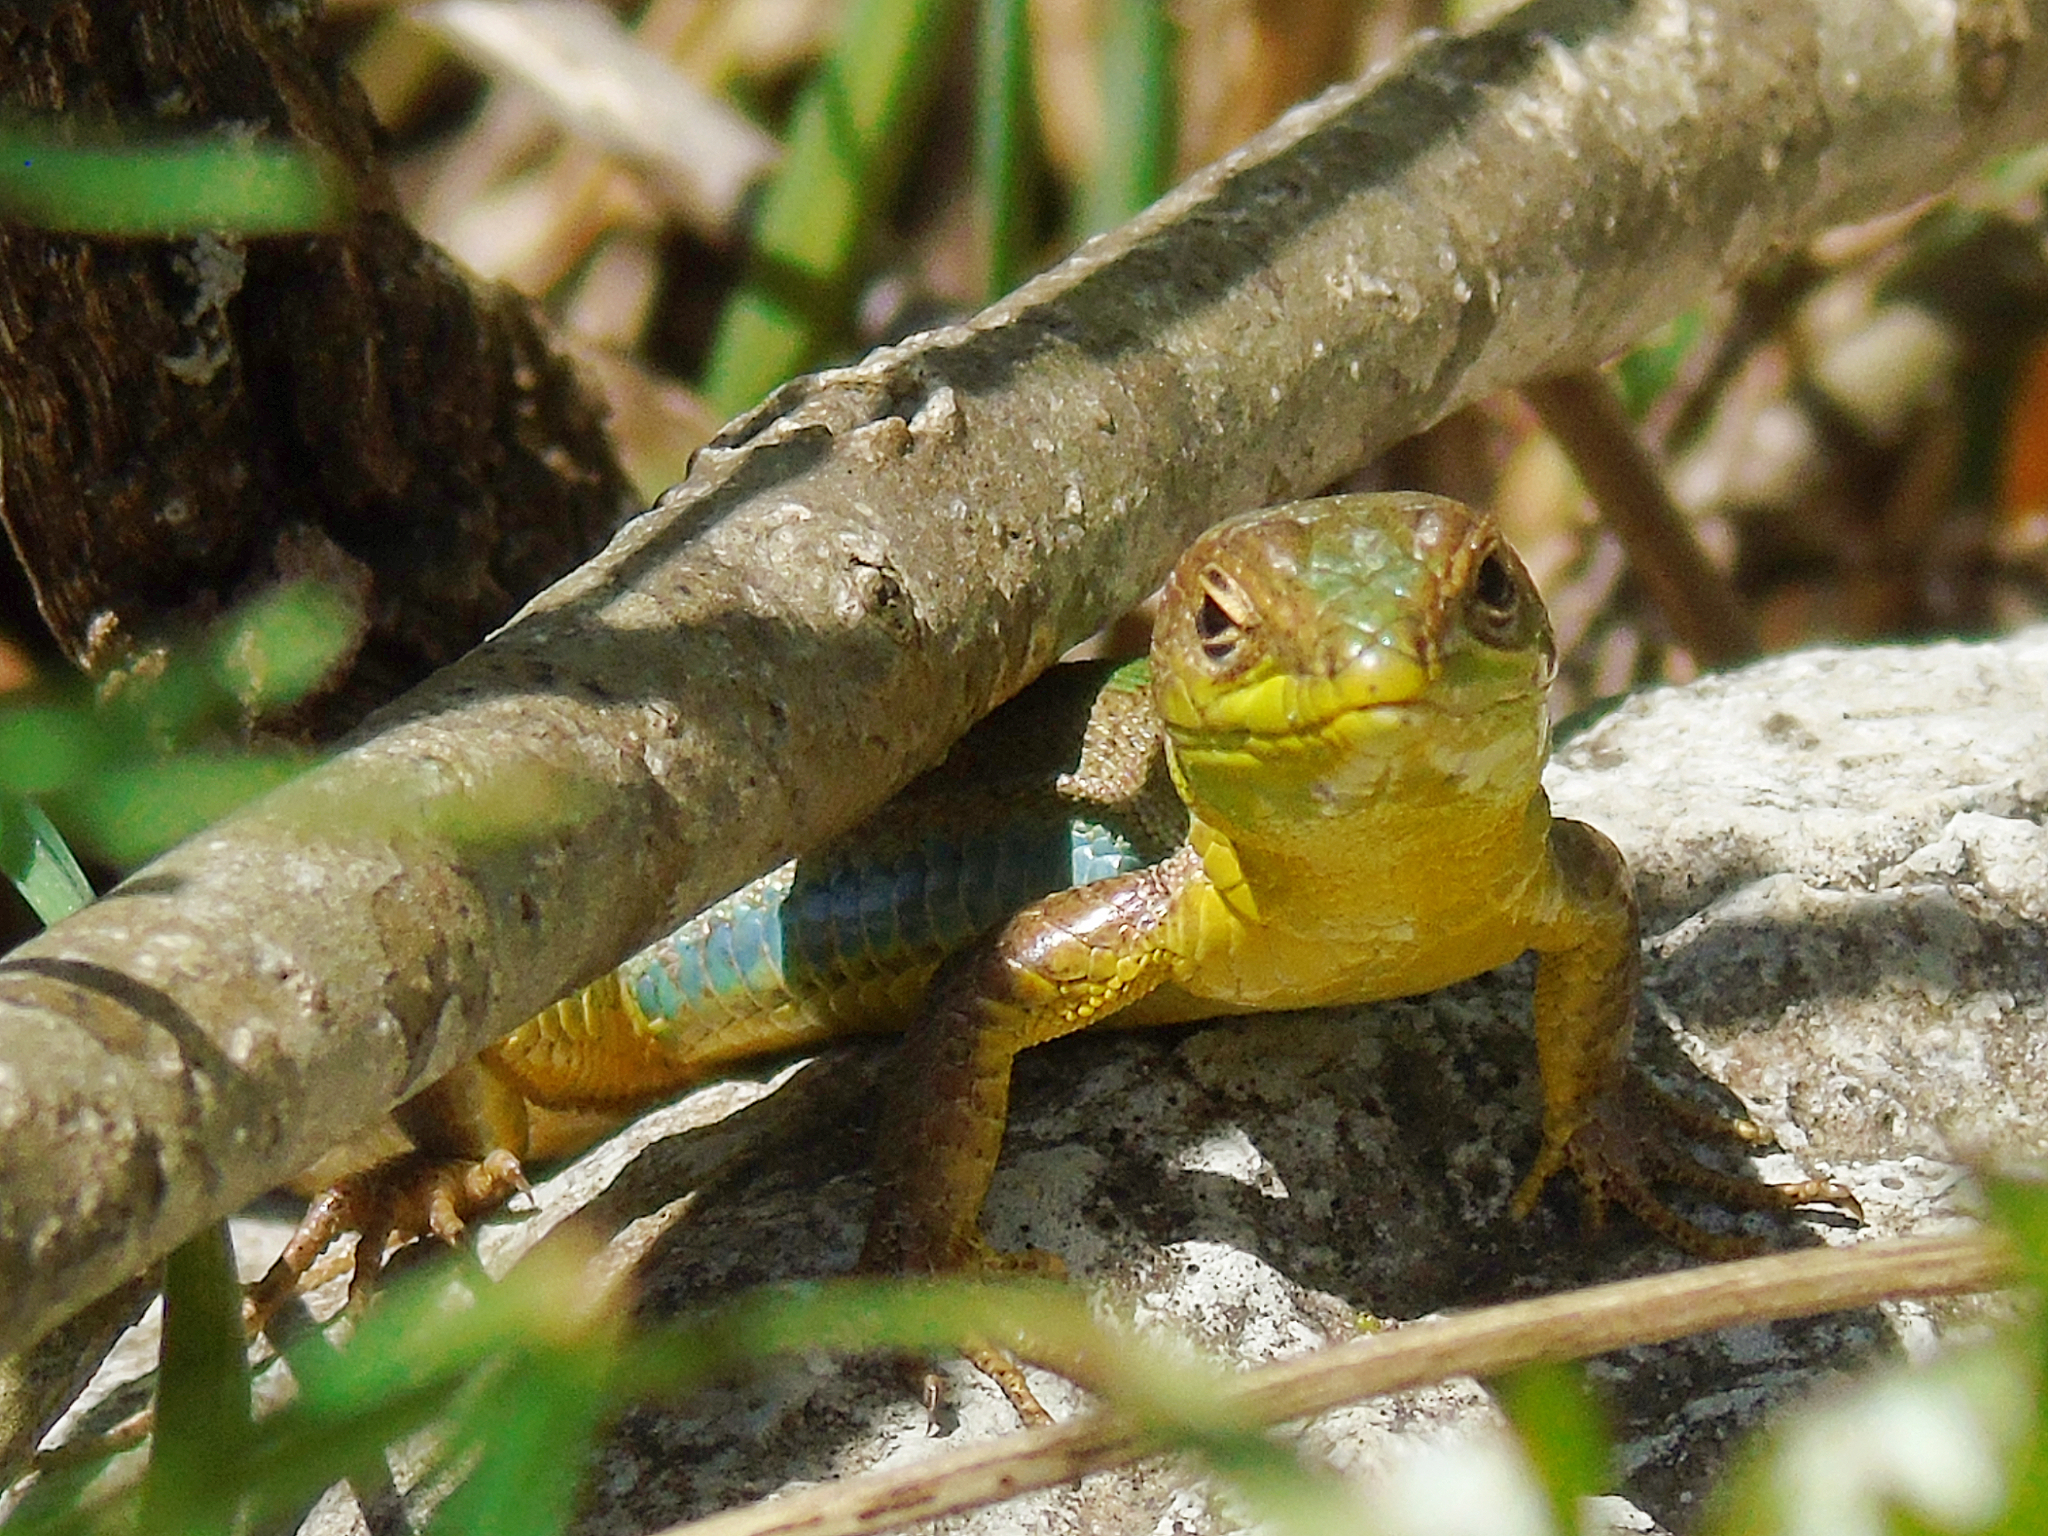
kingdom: Animalia
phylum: Chordata
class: Squamata
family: Lacertidae
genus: Podarcis
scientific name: Podarcis melisellensis
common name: Dalmatian wall lizard
